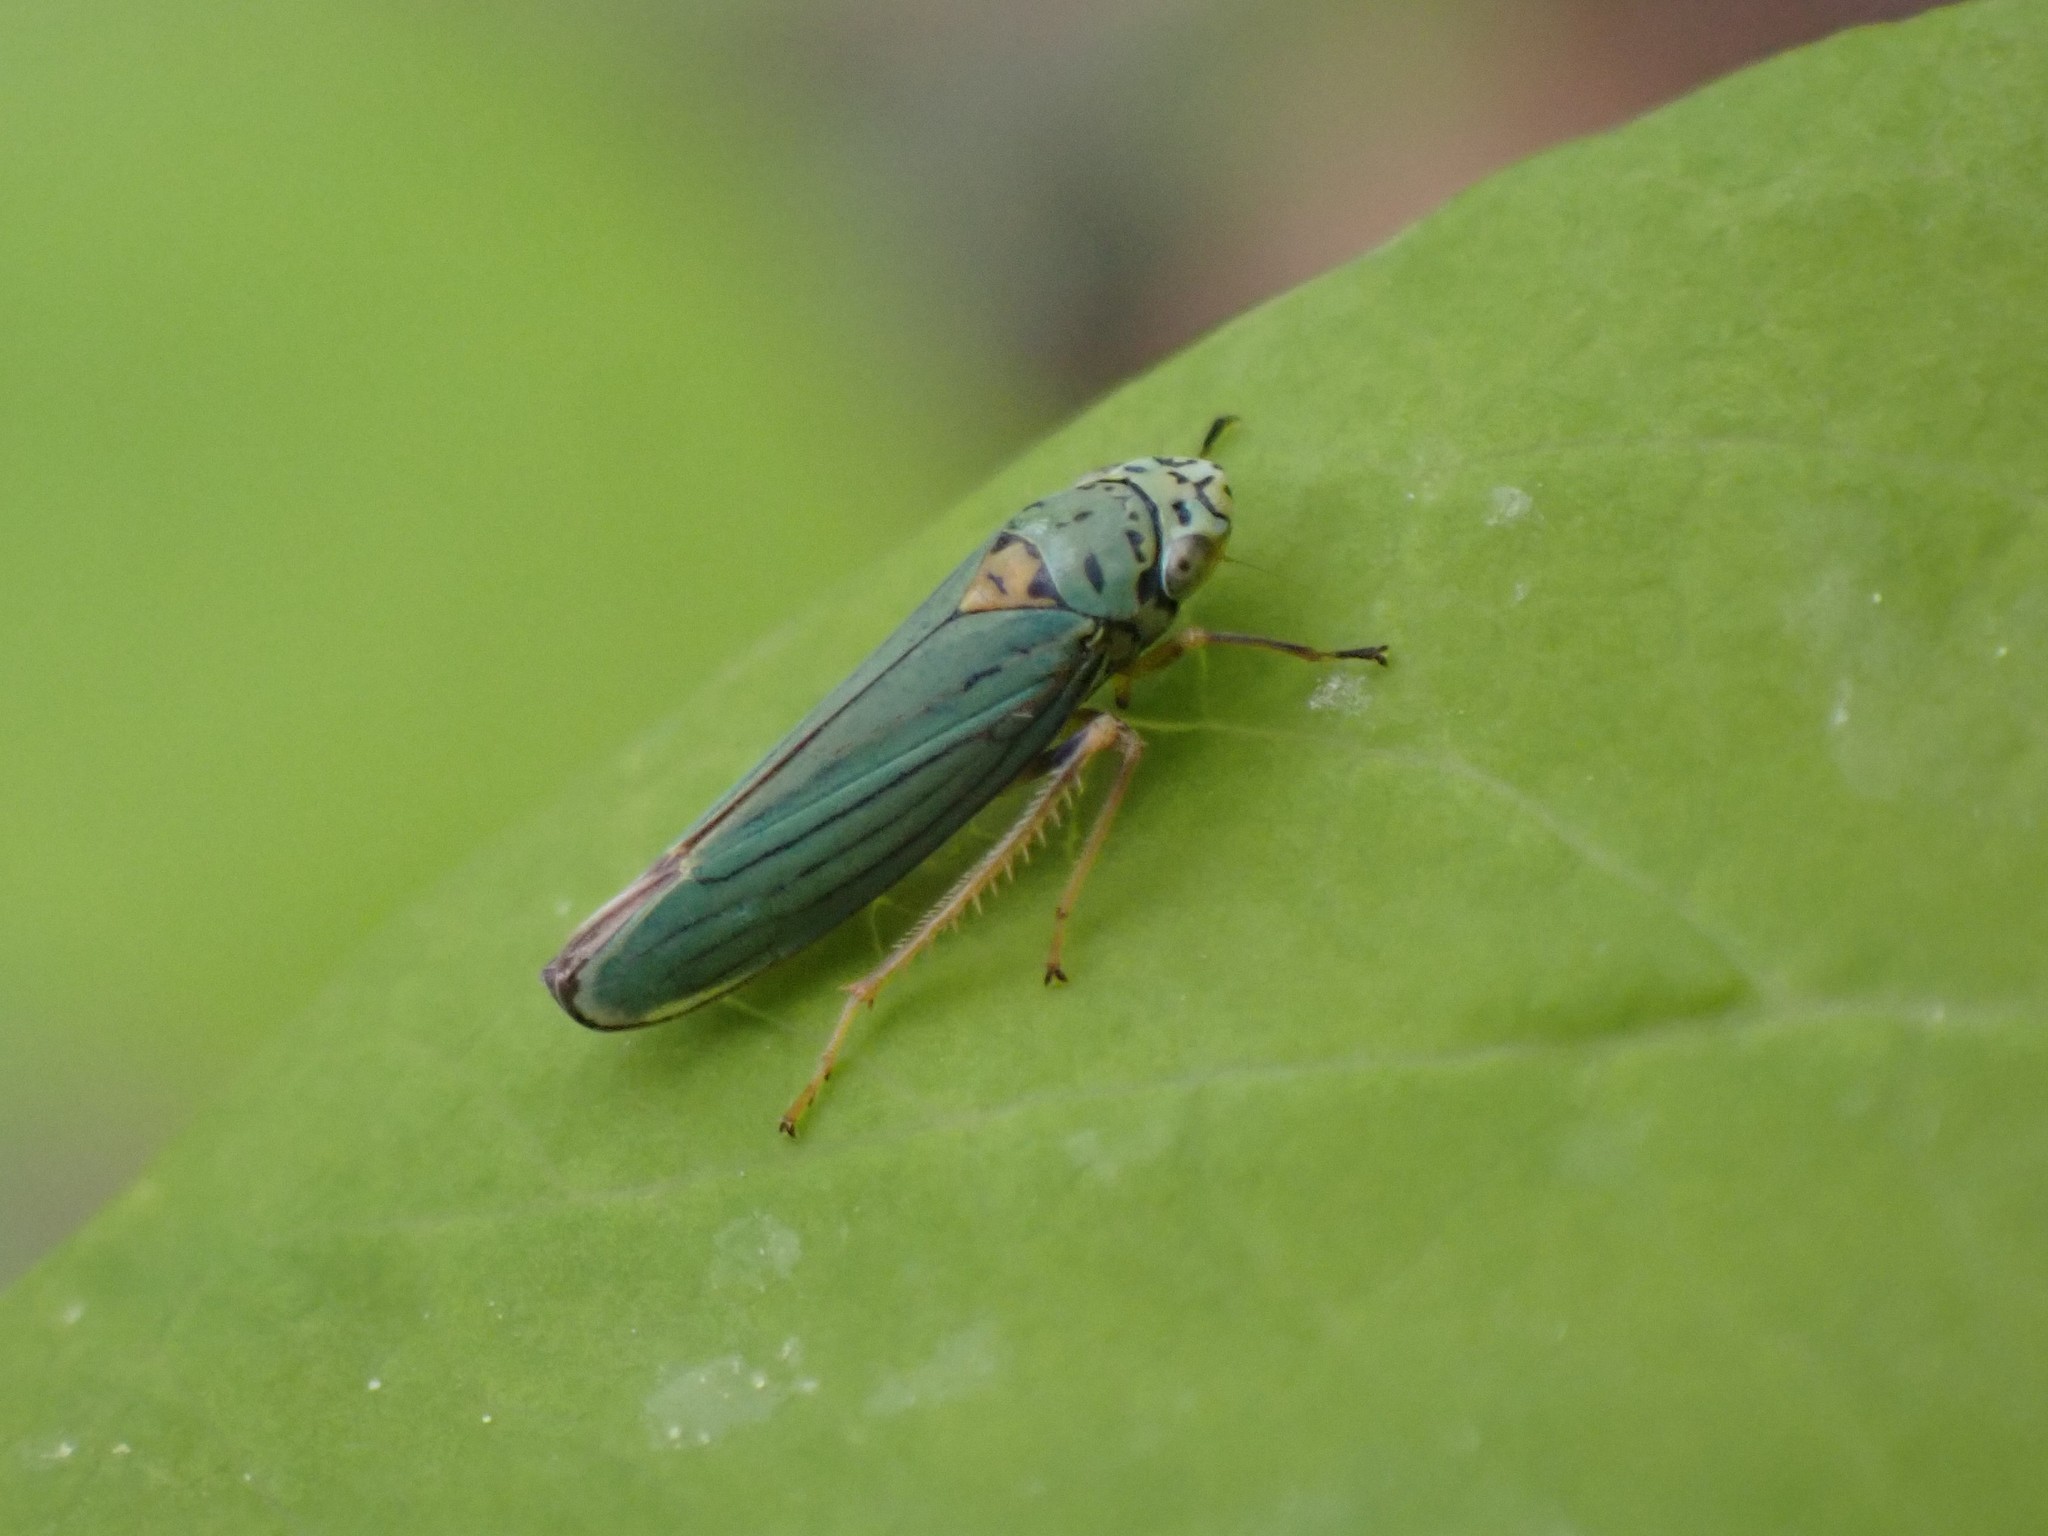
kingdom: Animalia
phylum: Arthropoda
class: Insecta
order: Hemiptera
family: Cicadellidae
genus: Graphocephala
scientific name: Graphocephala atropunctata
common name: Blue-green sharpshooter
